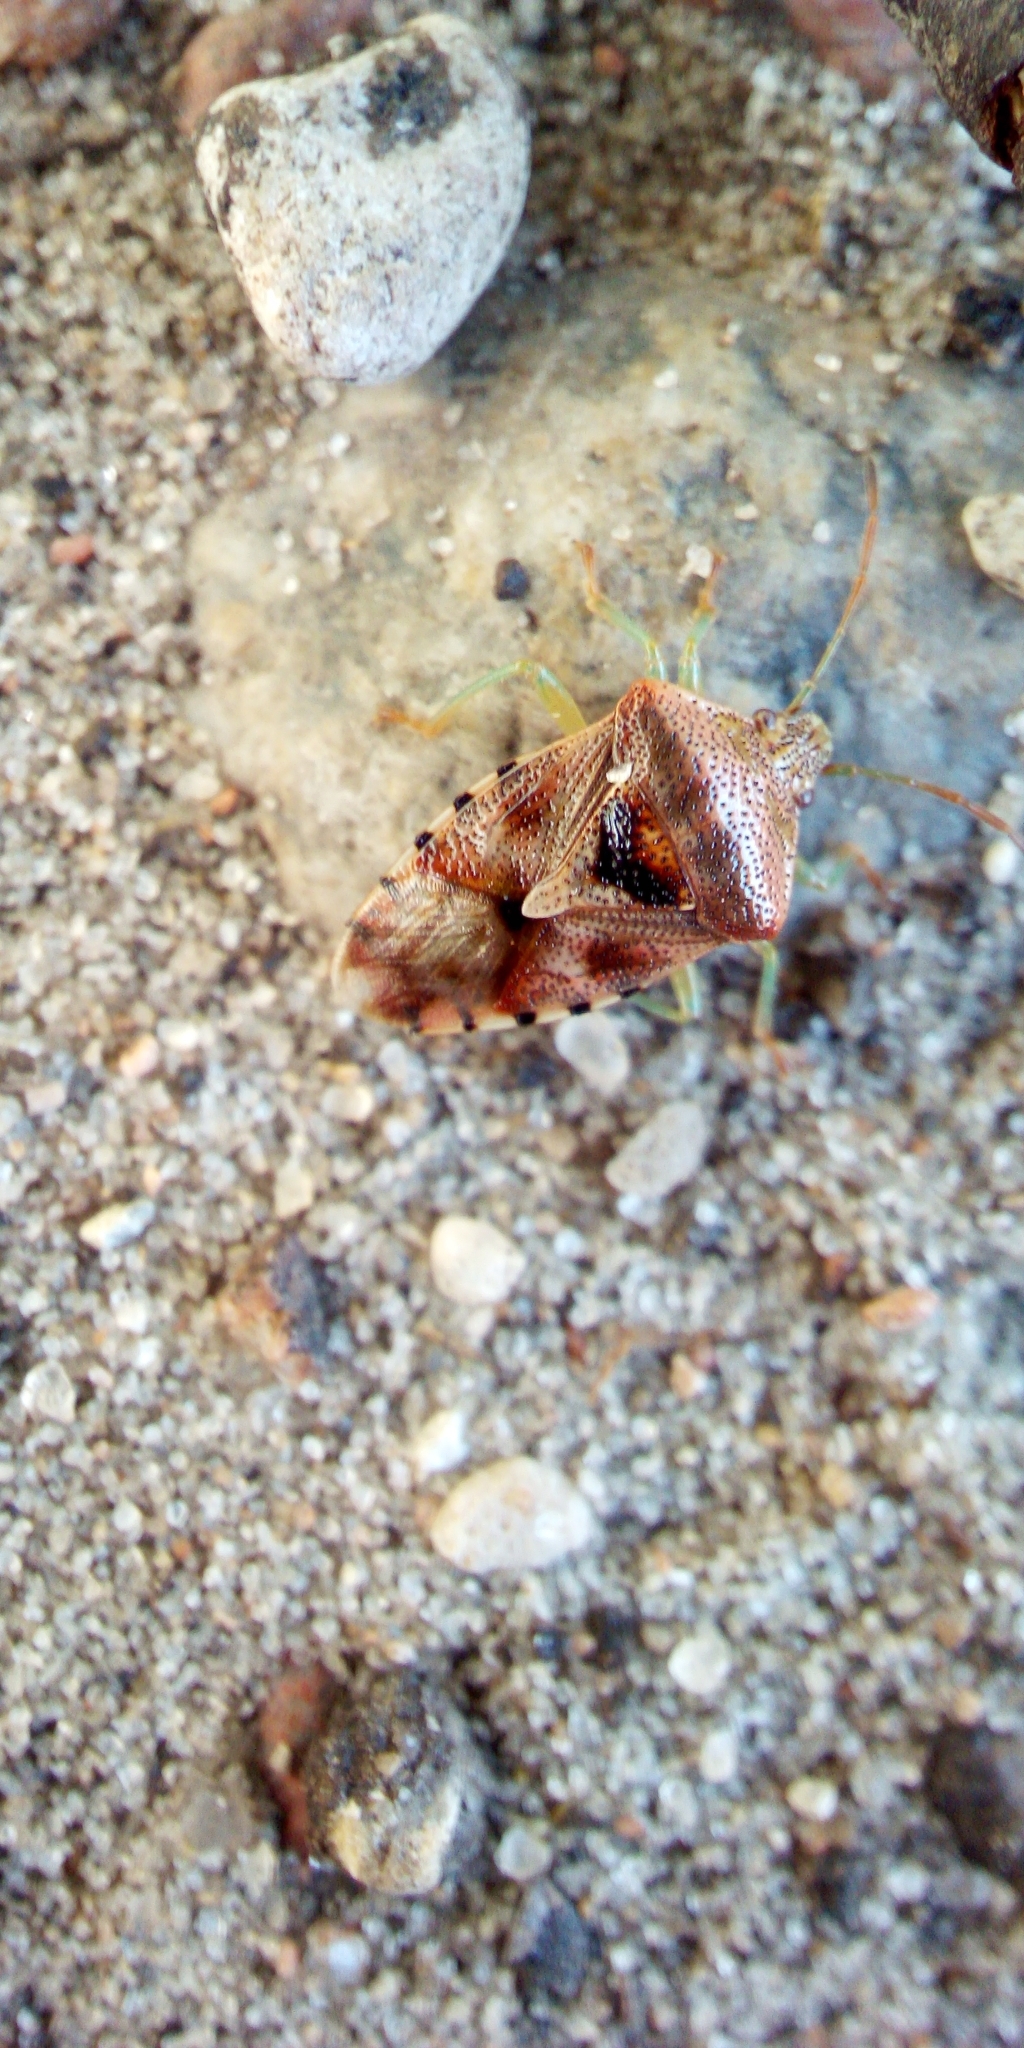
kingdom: Animalia
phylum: Arthropoda
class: Insecta
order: Hemiptera
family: Acanthosomatidae
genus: Elasmucha
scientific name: Elasmucha grisea
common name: Parent bug
